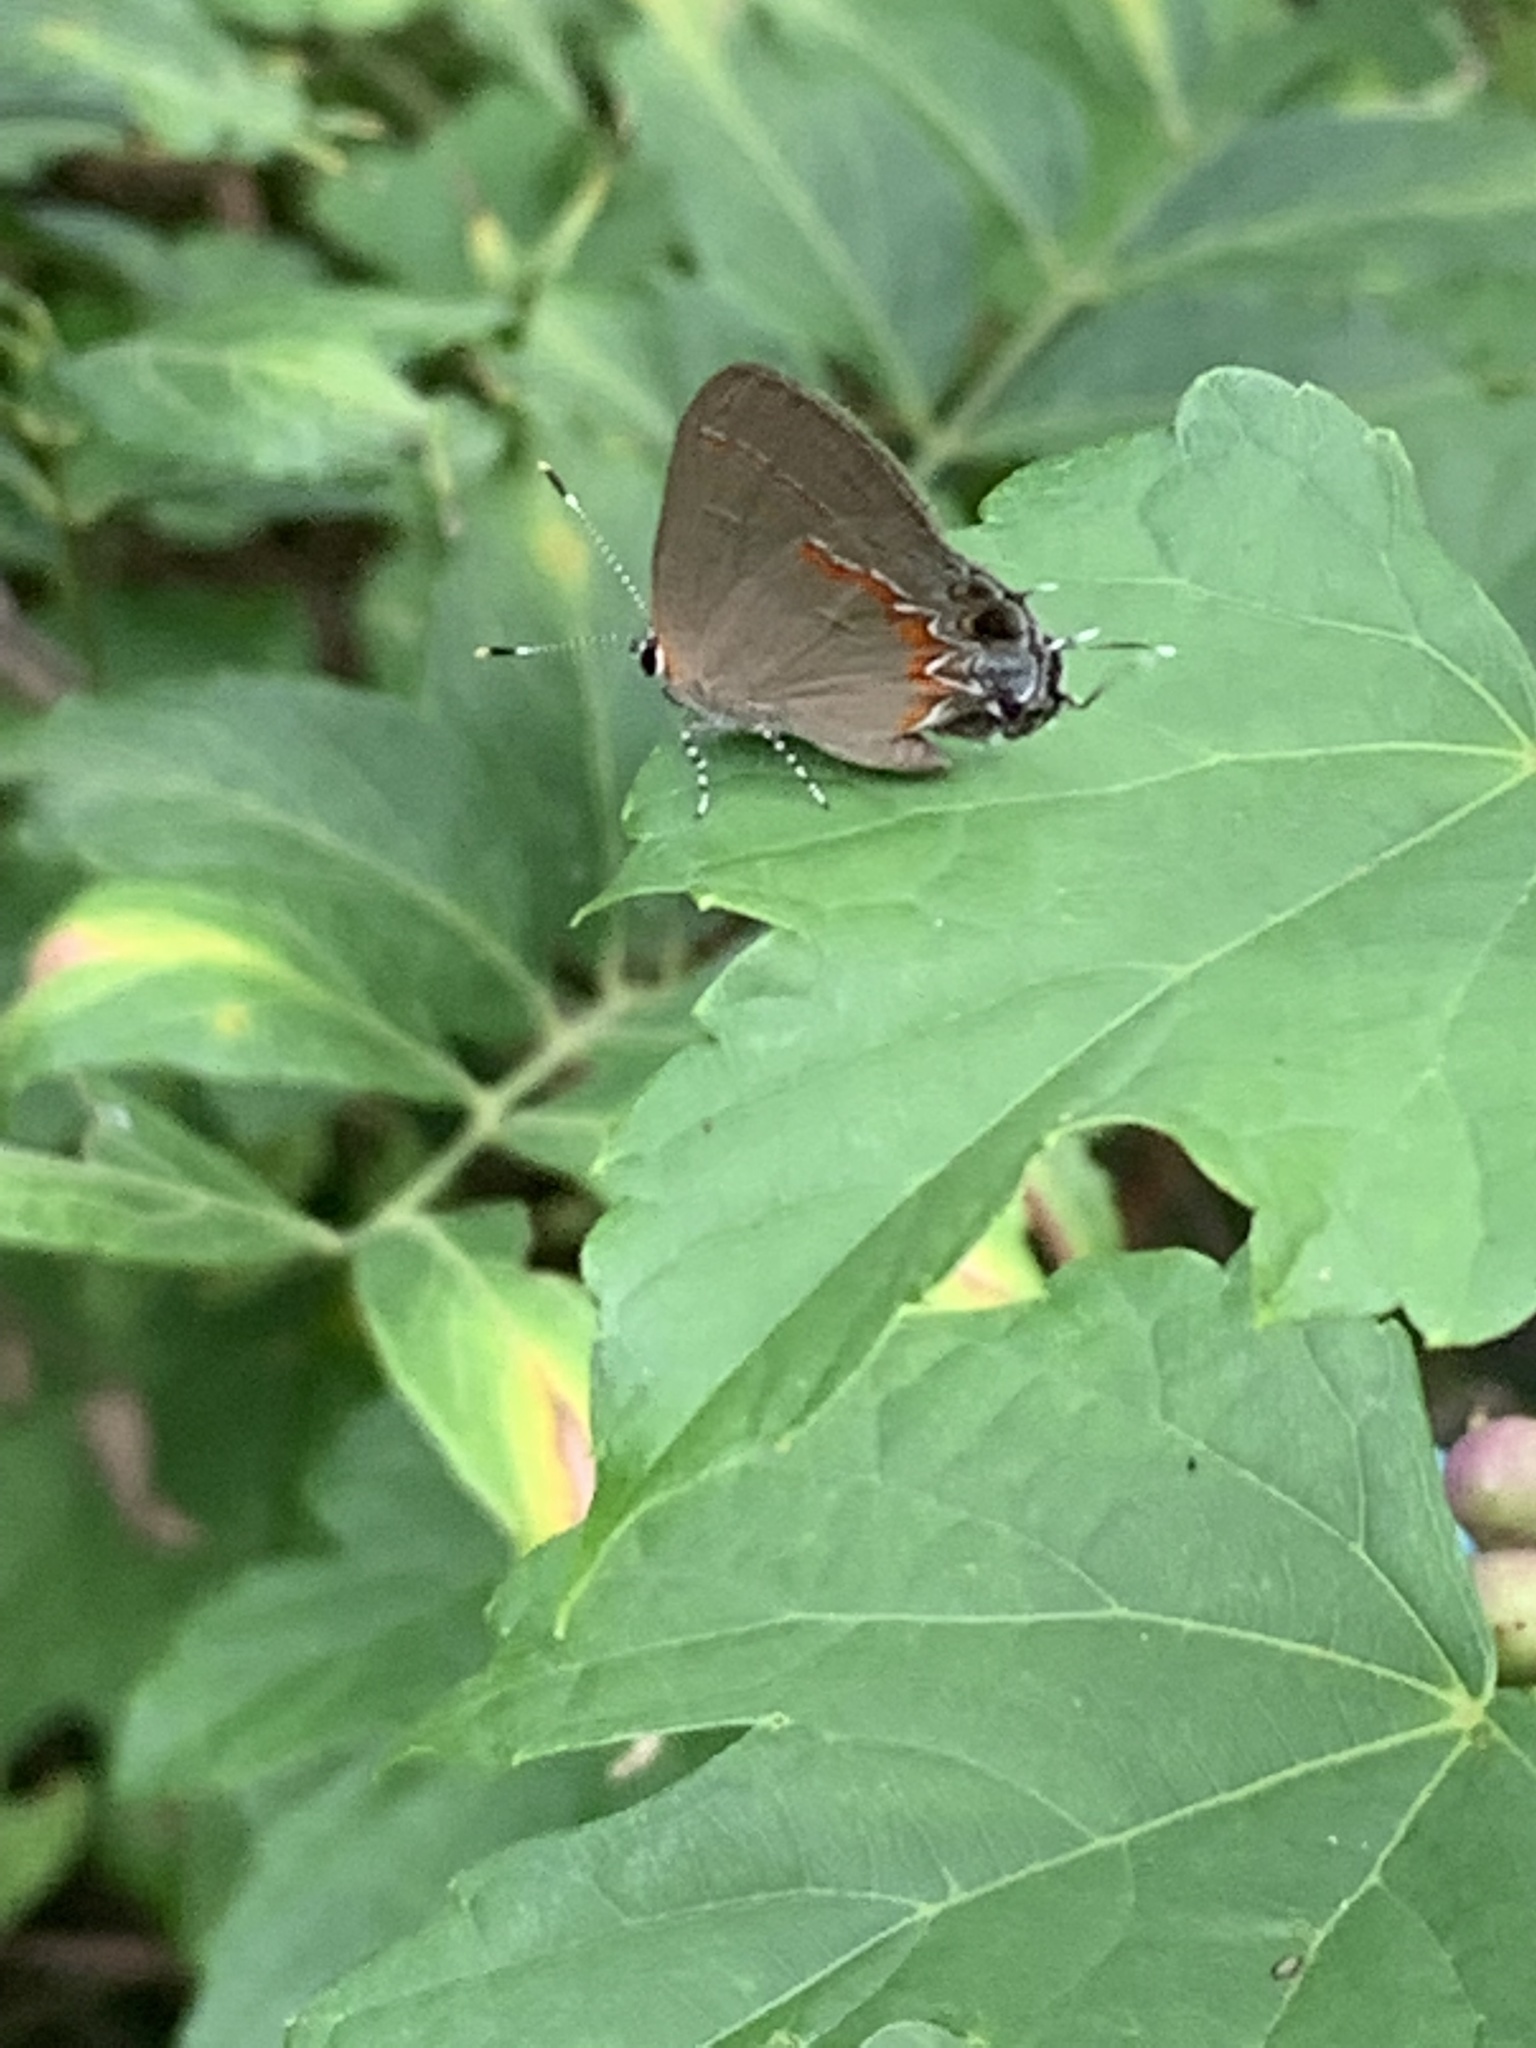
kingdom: Animalia
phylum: Arthropoda
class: Insecta
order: Lepidoptera
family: Lycaenidae
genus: Calycopis
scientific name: Calycopis cecrops
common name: Red-banded hairstreak
